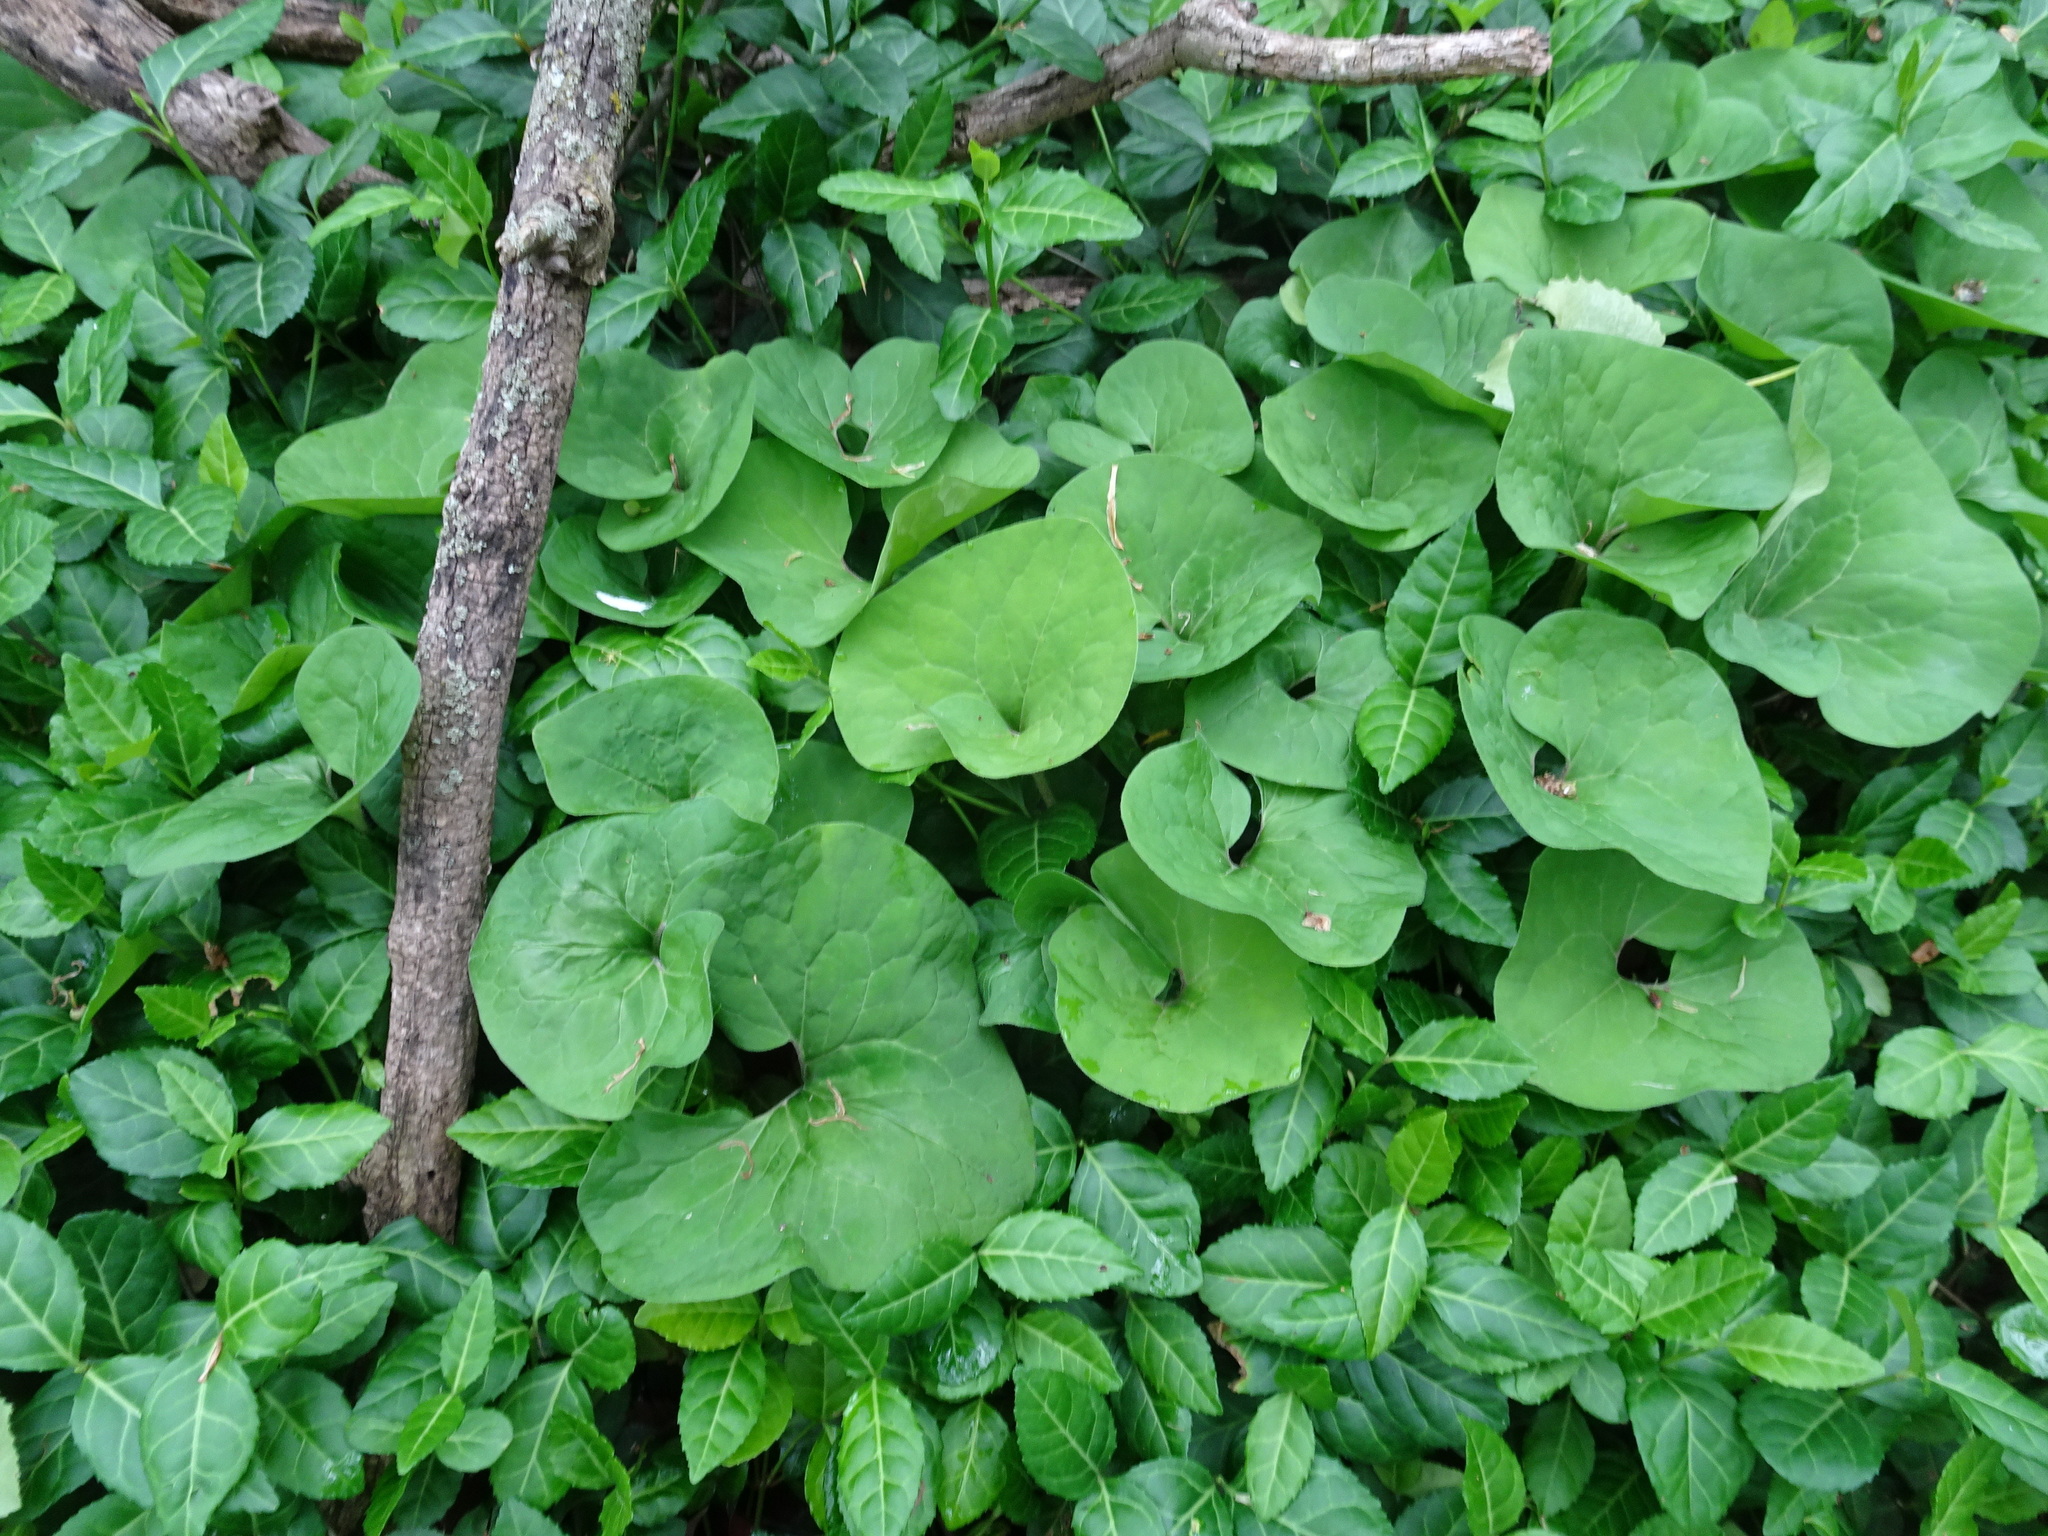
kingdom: Plantae
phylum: Tracheophyta
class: Magnoliopsida
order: Piperales
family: Aristolochiaceae
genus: Asarum
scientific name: Asarum canadense
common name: Wild ginger
